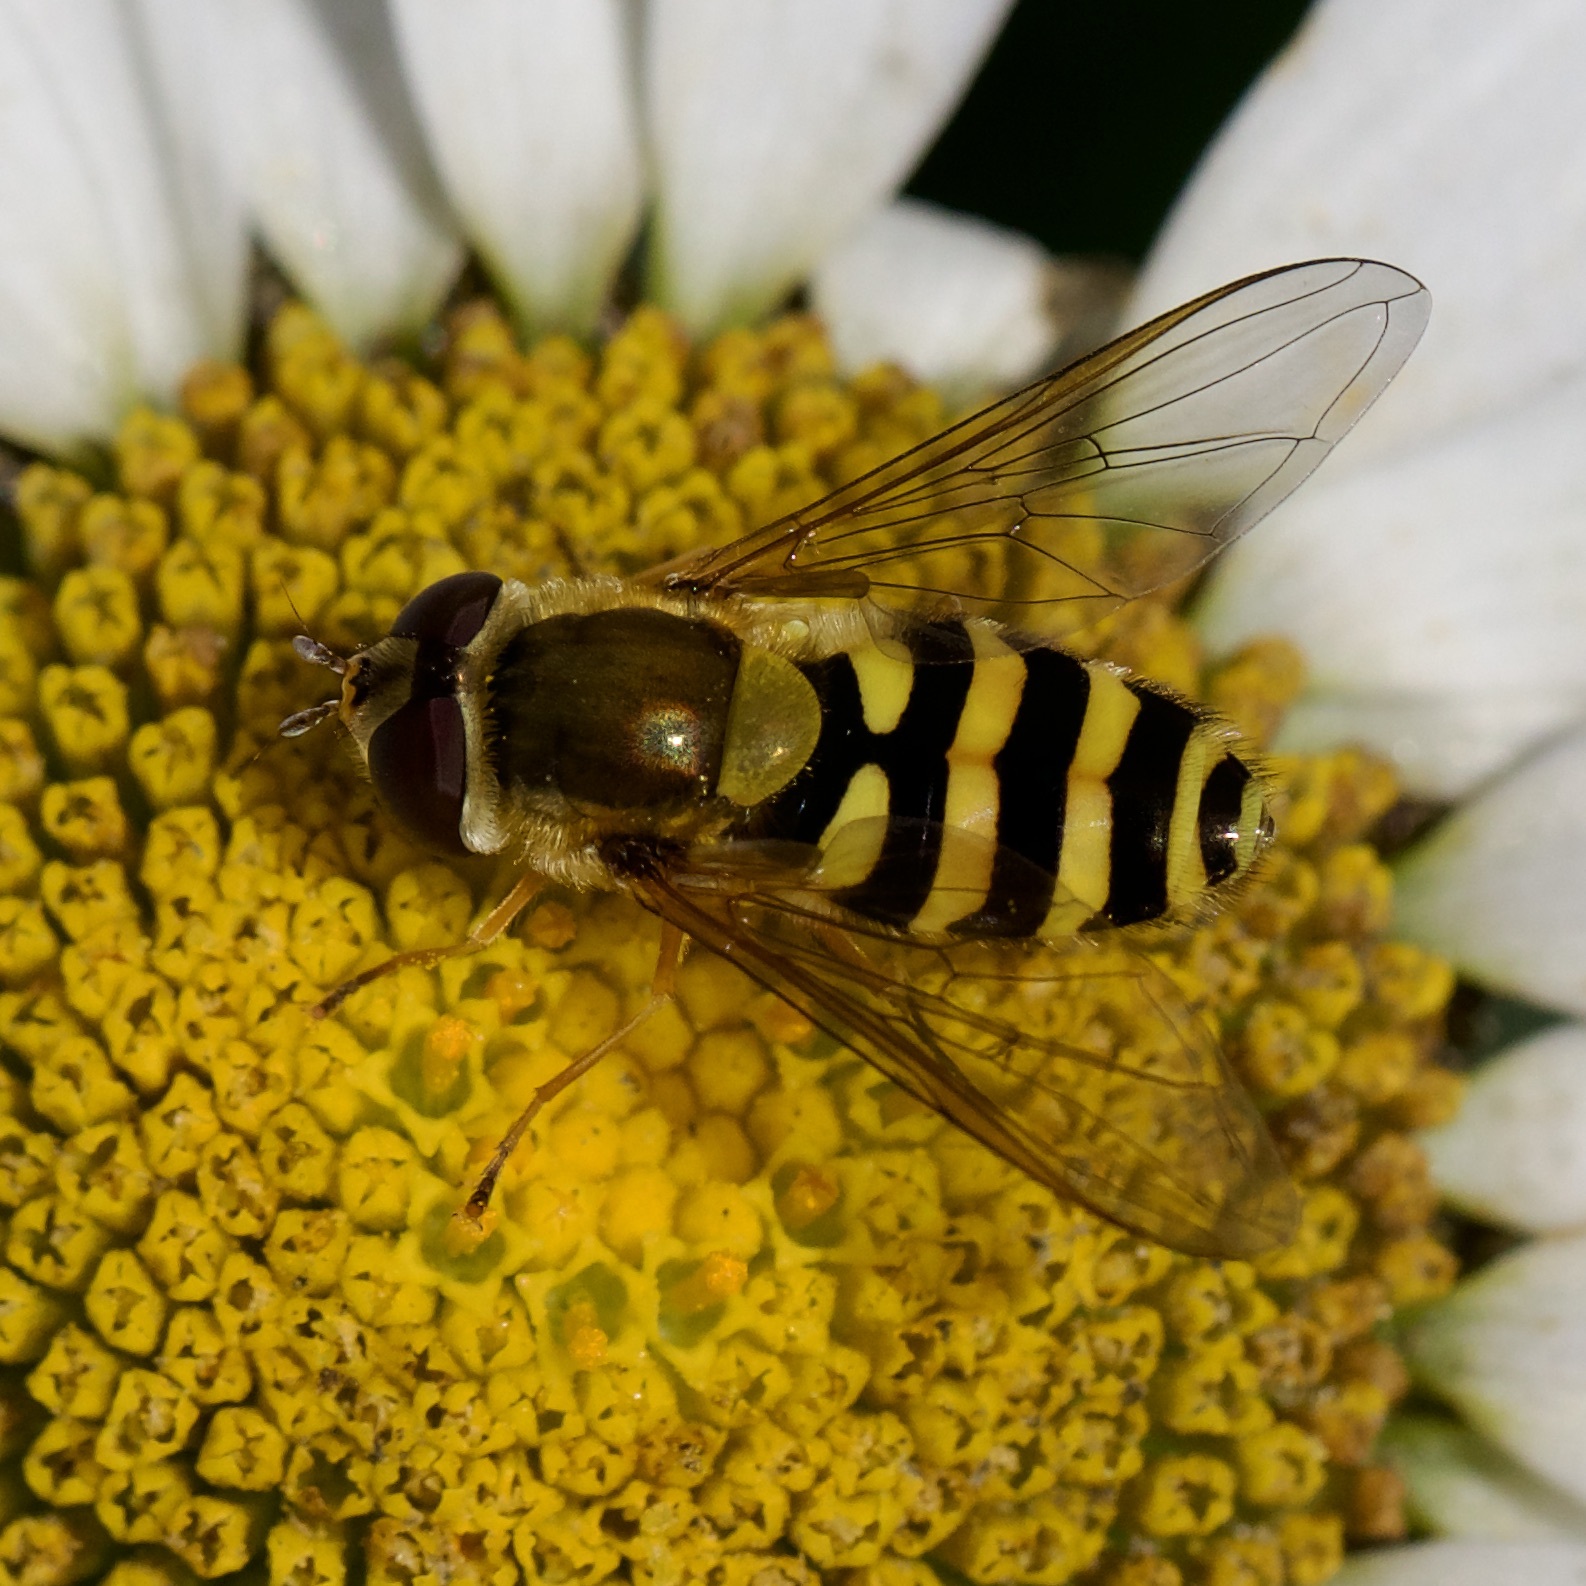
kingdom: Animalia
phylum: Arthropoda
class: Insecta
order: Diptera
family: Syrphidae
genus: Syrphus
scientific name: Syrphus ribesii
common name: Common flower fly
